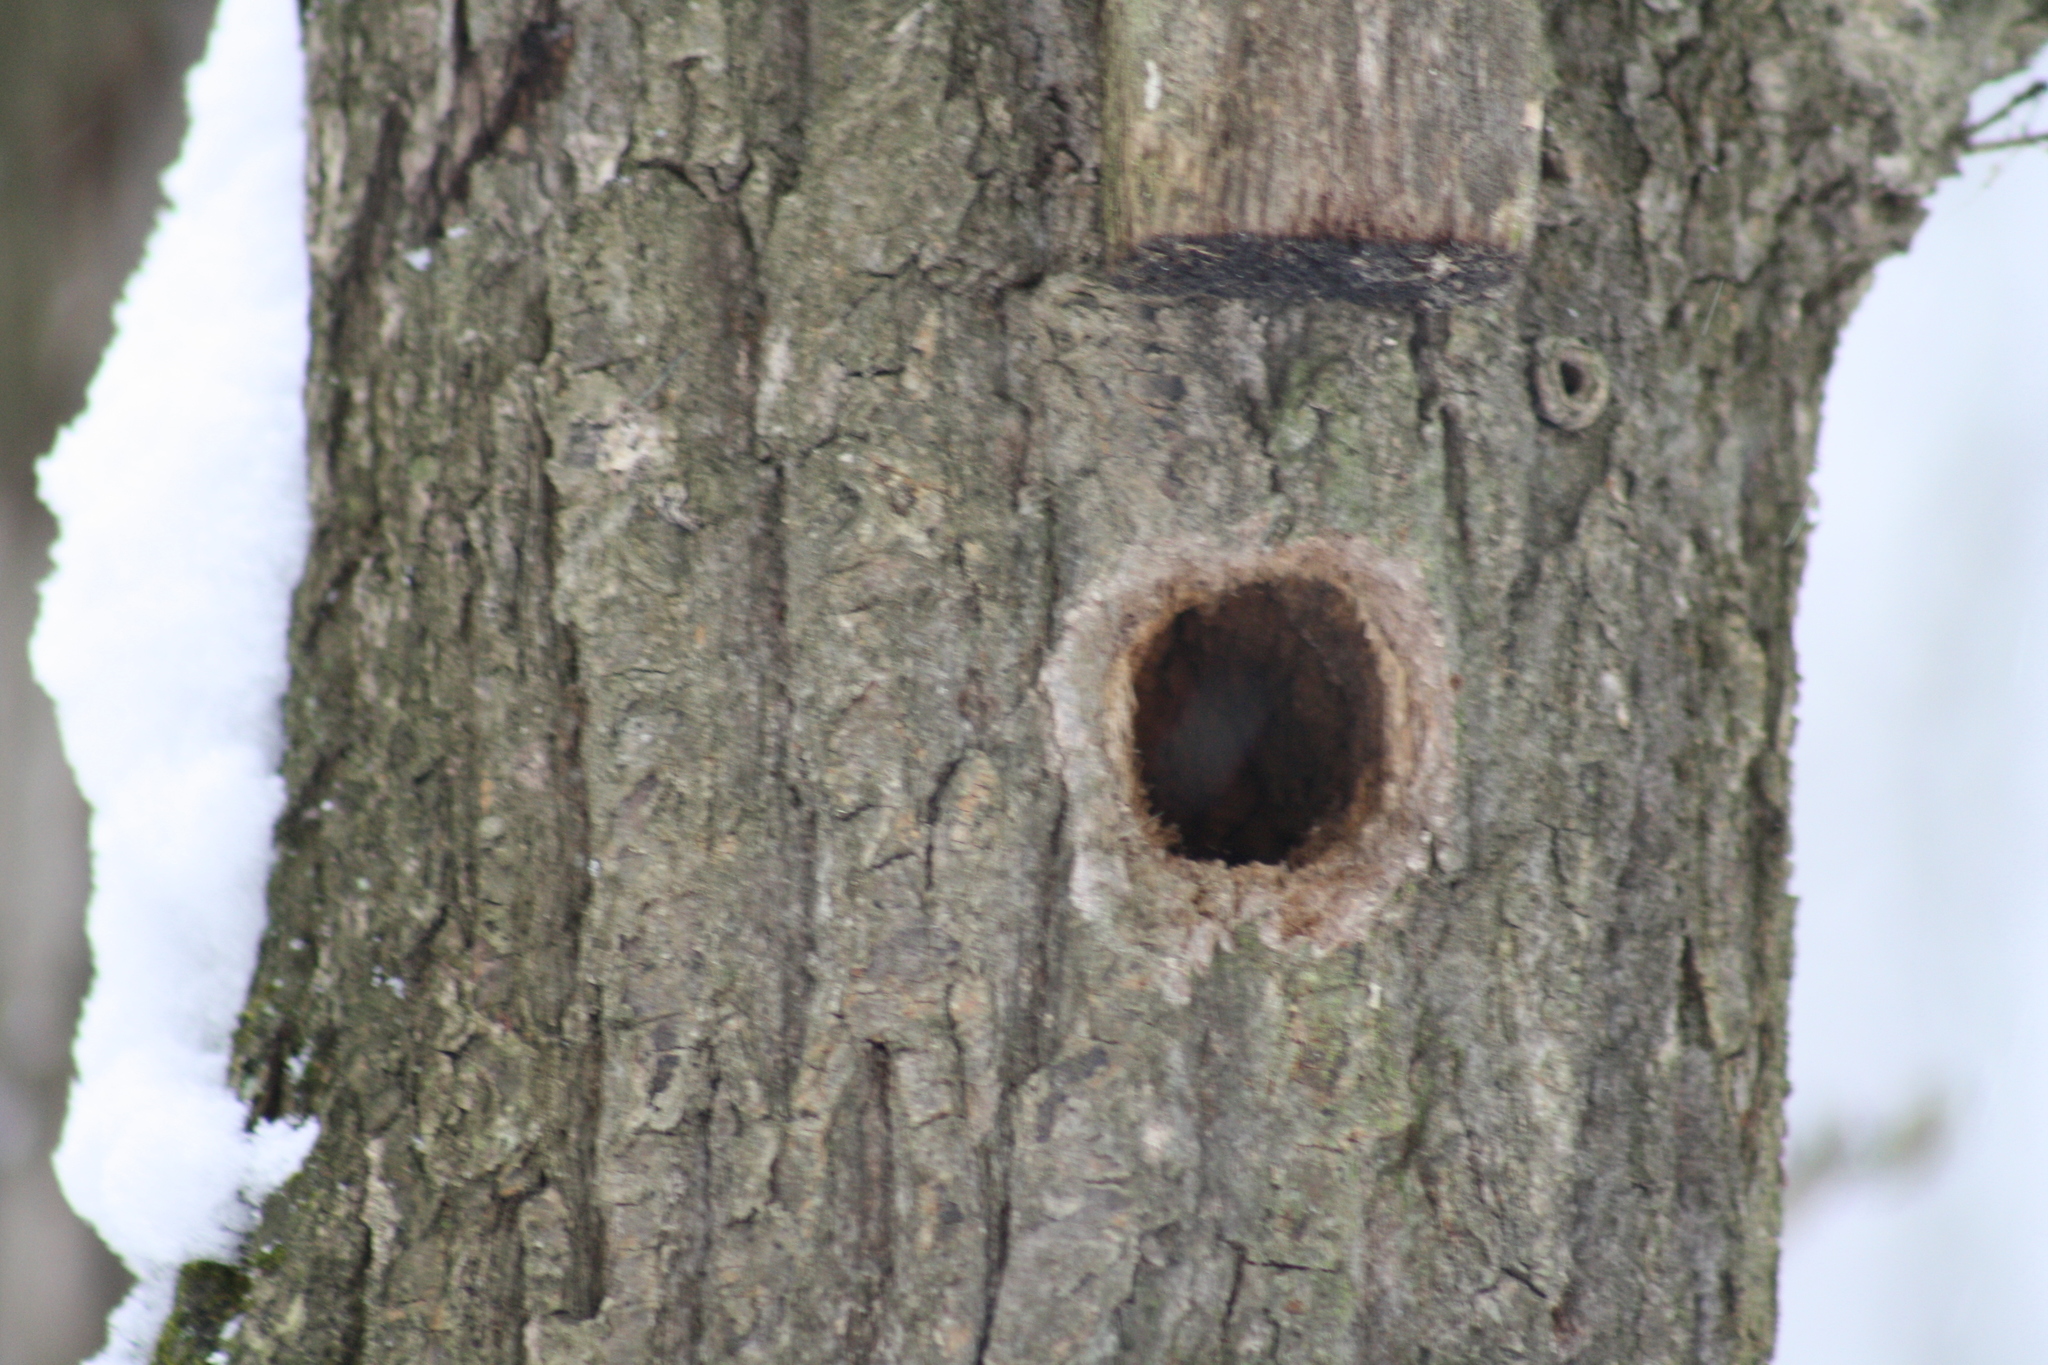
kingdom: Animalia
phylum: Chordata
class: Aves
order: Piciformes
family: Picidae
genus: Dryobates
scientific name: Dryobates minor
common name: Lesser spotted woodpecker
